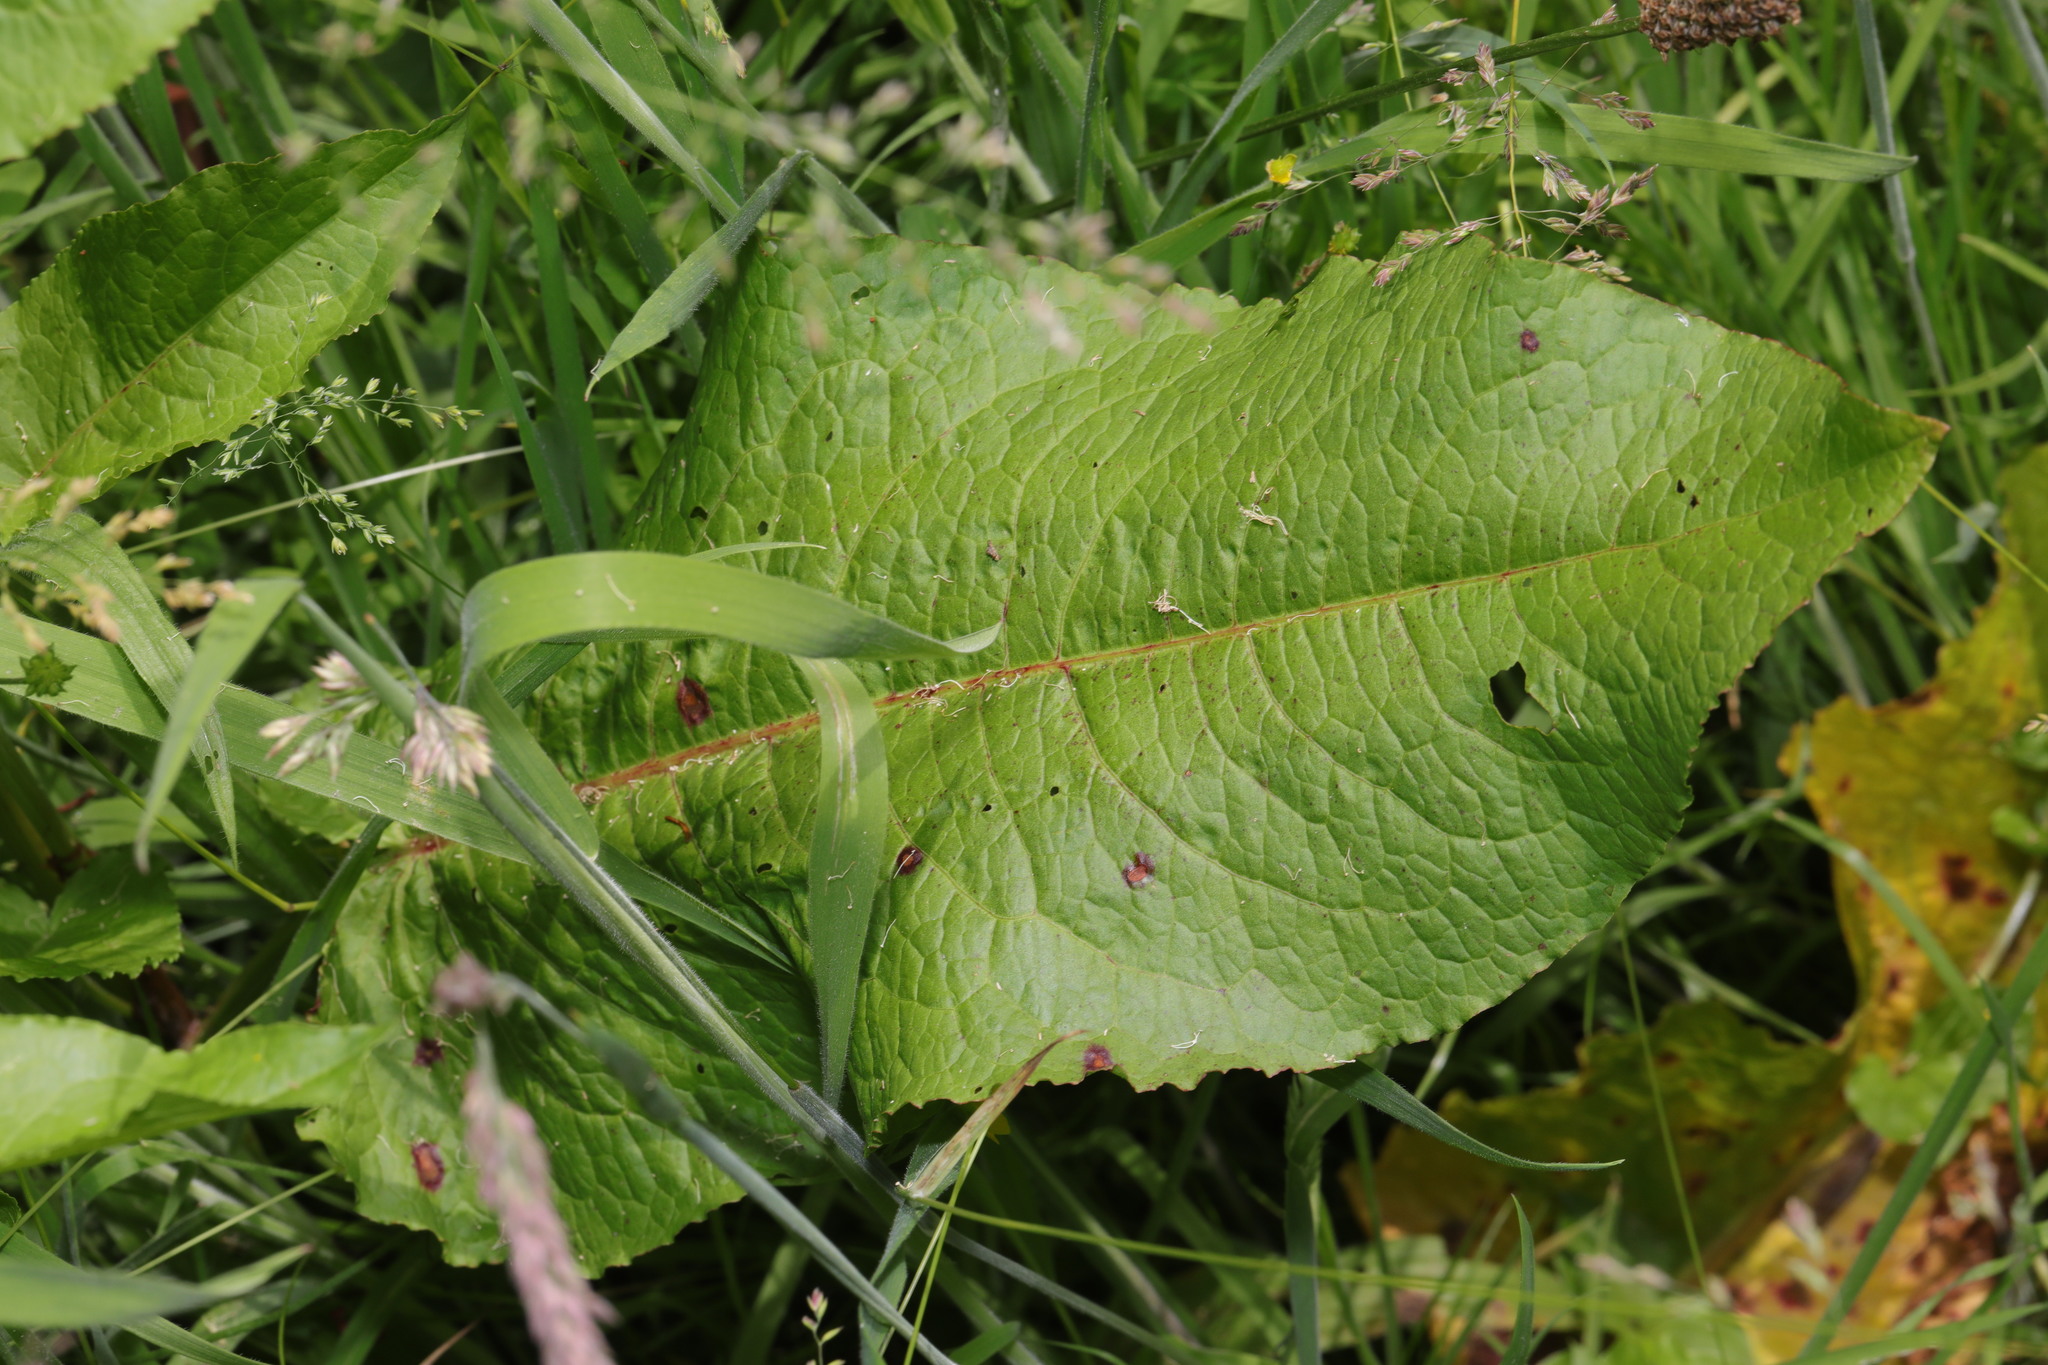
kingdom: Plantae
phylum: Tracheophyta
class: Magnoliopsida
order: Caryophyllales
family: Polygonaceae
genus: Rumex
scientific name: Rumex obtusifolius
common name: Bitter dock
